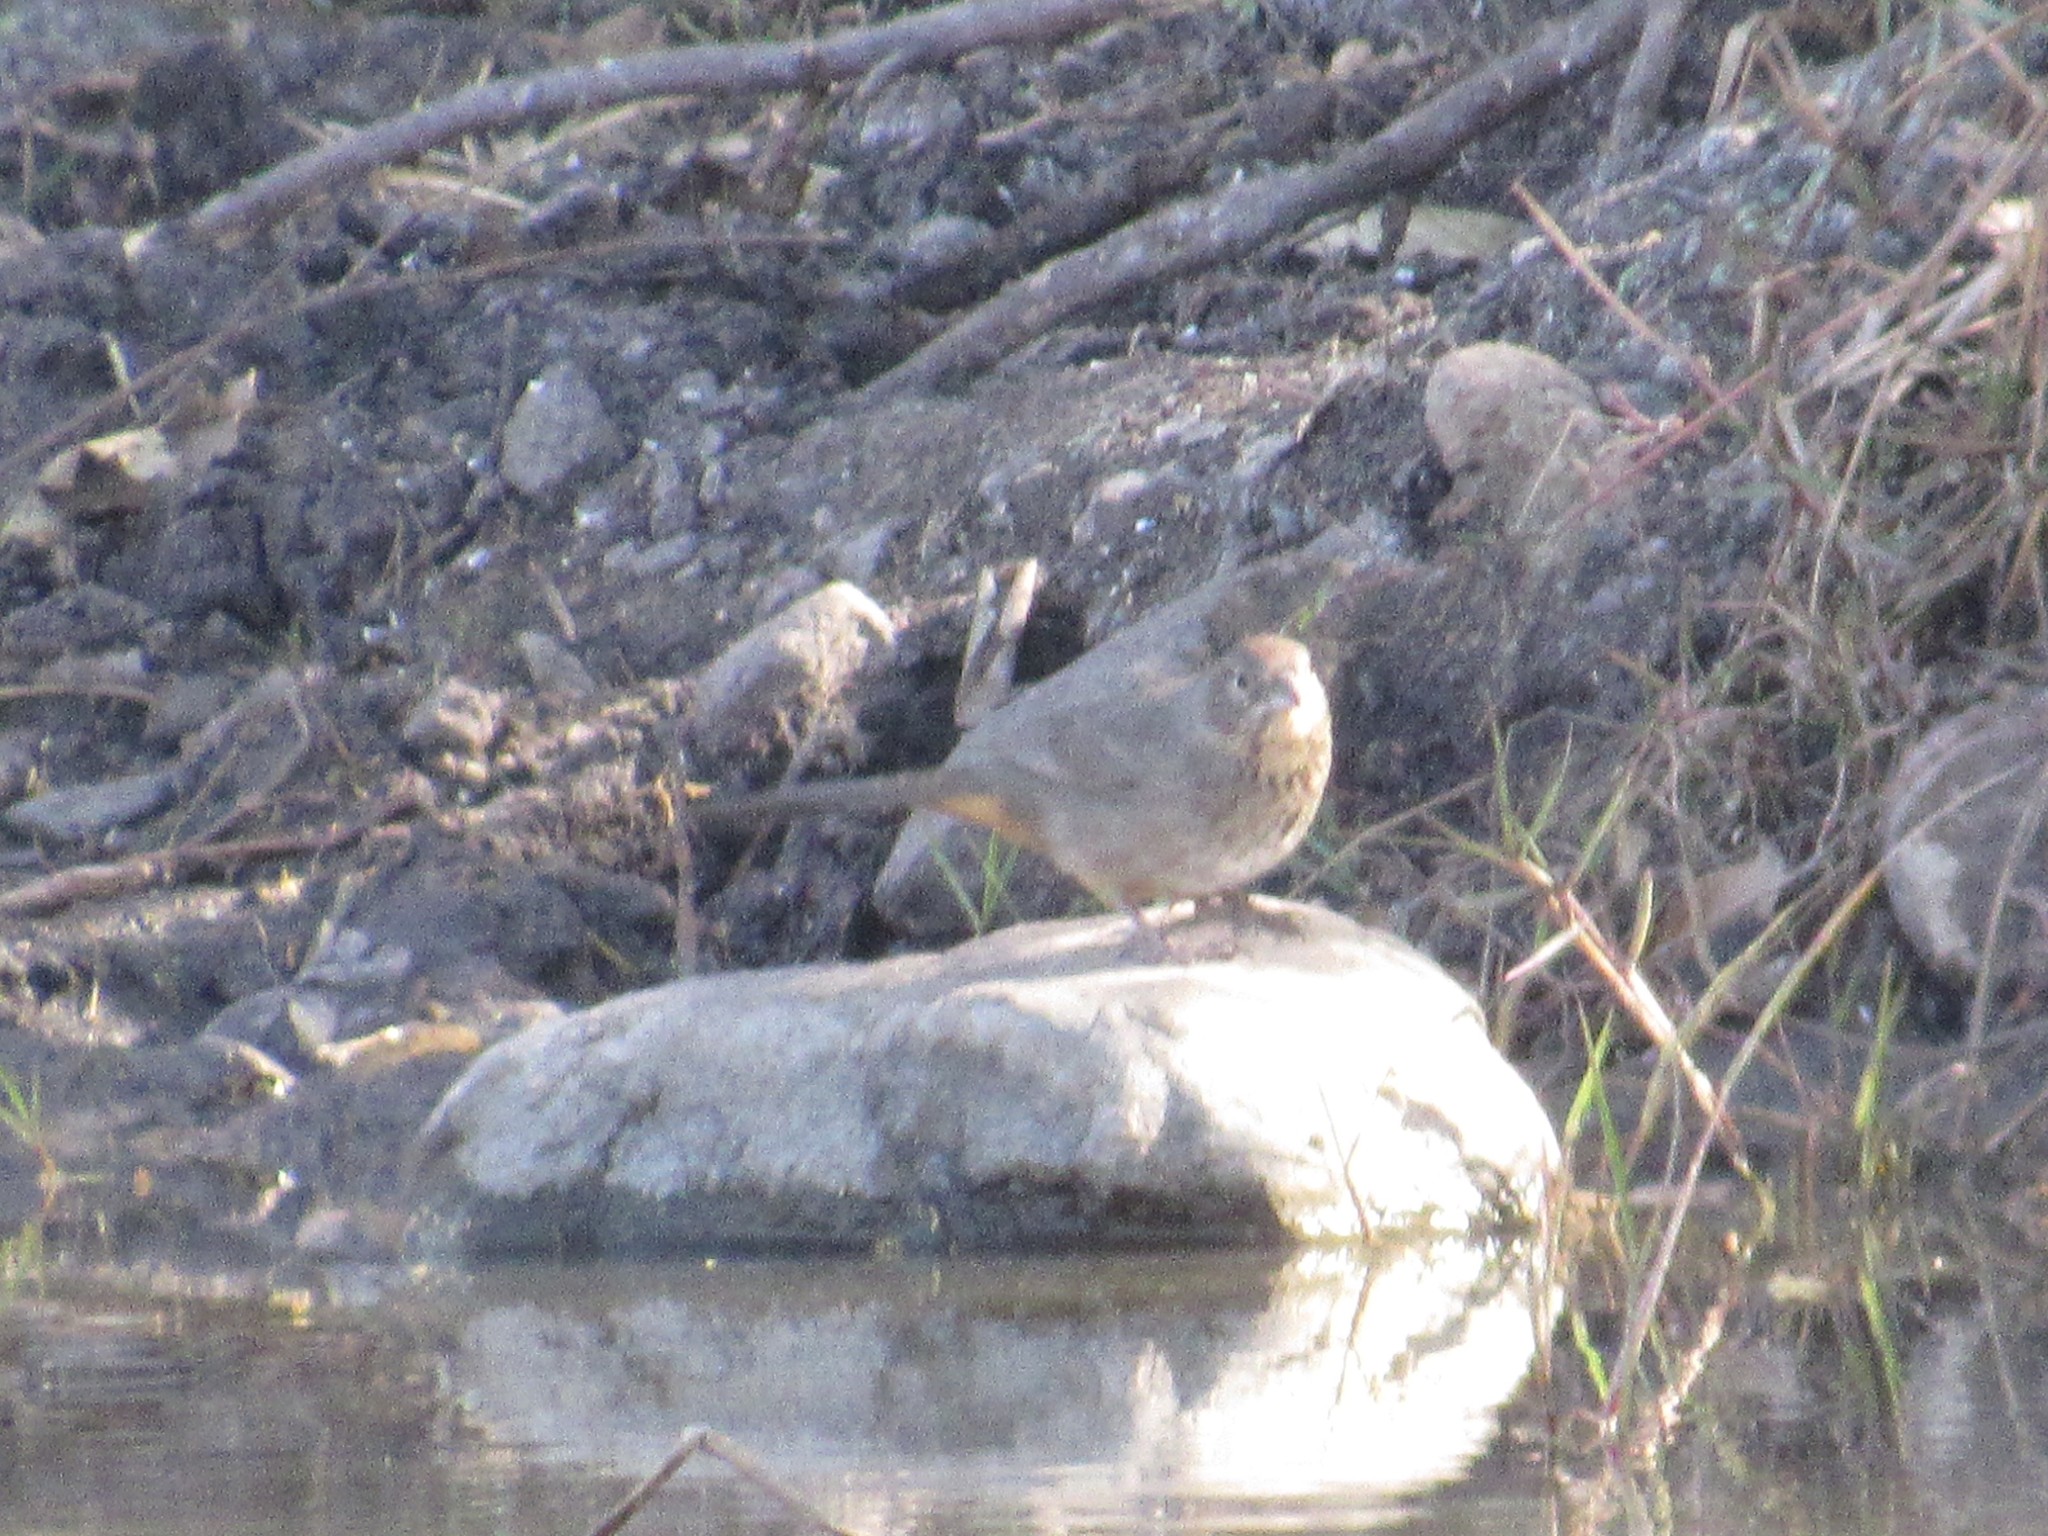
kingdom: Animalia
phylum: Chordata
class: Aves
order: Passeriformes
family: Passerellidae
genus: Melozone
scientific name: Melozone fusca
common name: Canyon towhee
